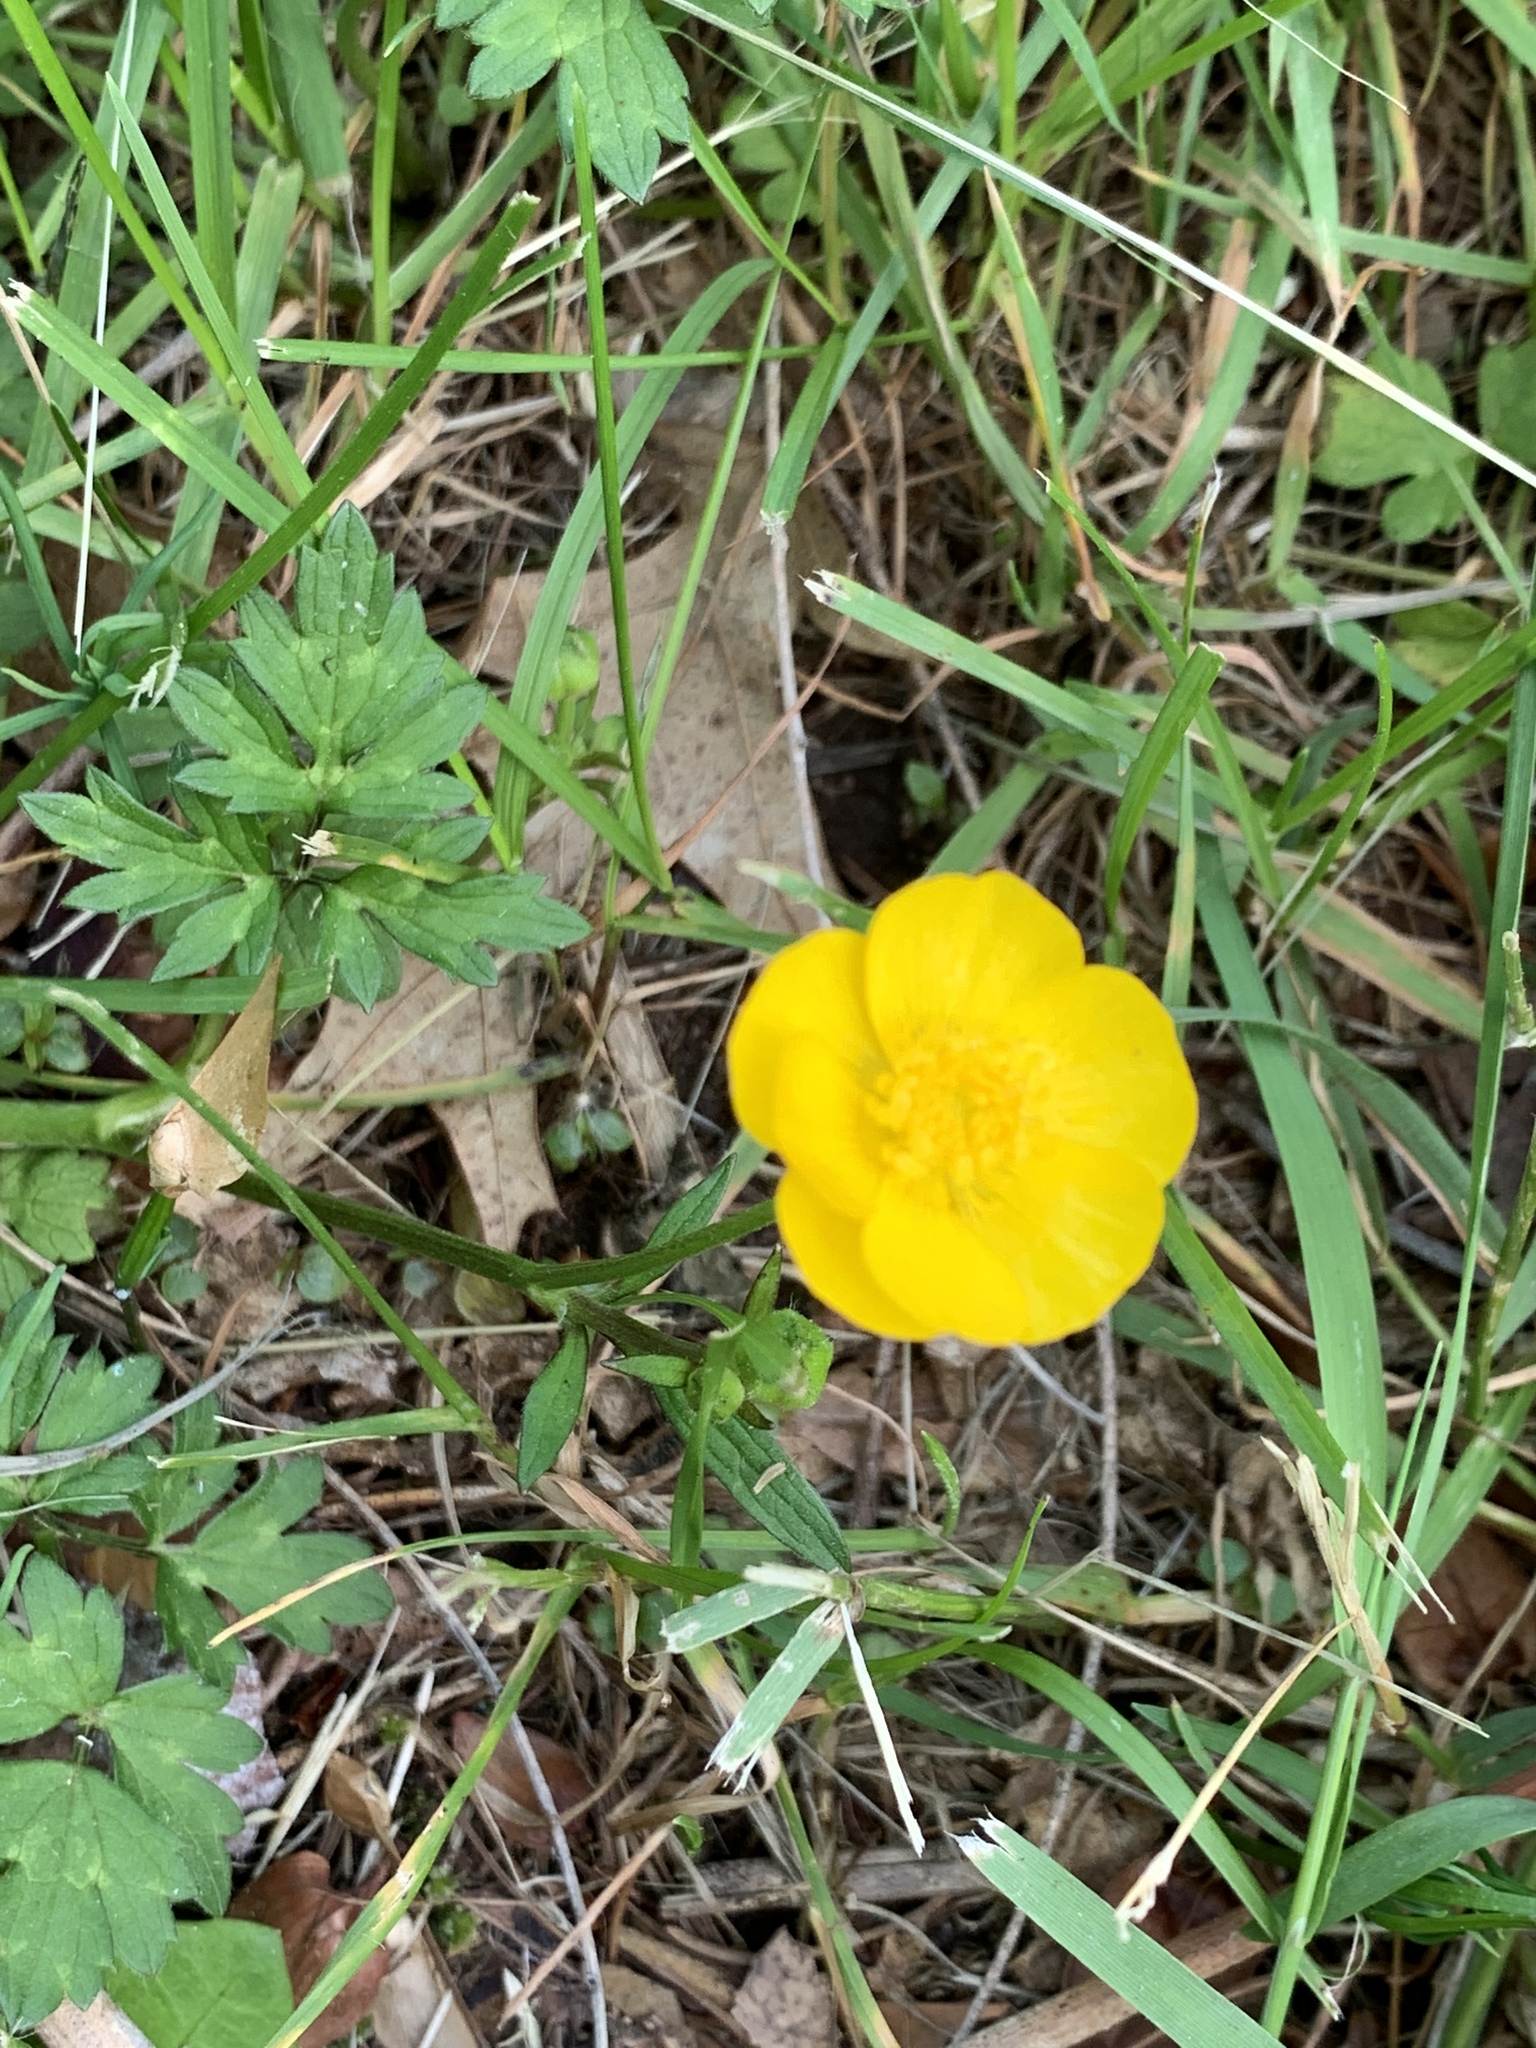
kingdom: Plantae
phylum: Tracheophyta
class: Magnoliopsida
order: Ranunculales
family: Ranunculaceae
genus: Ranunculus
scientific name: Ranunculus repens
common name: Creeping buttercup
